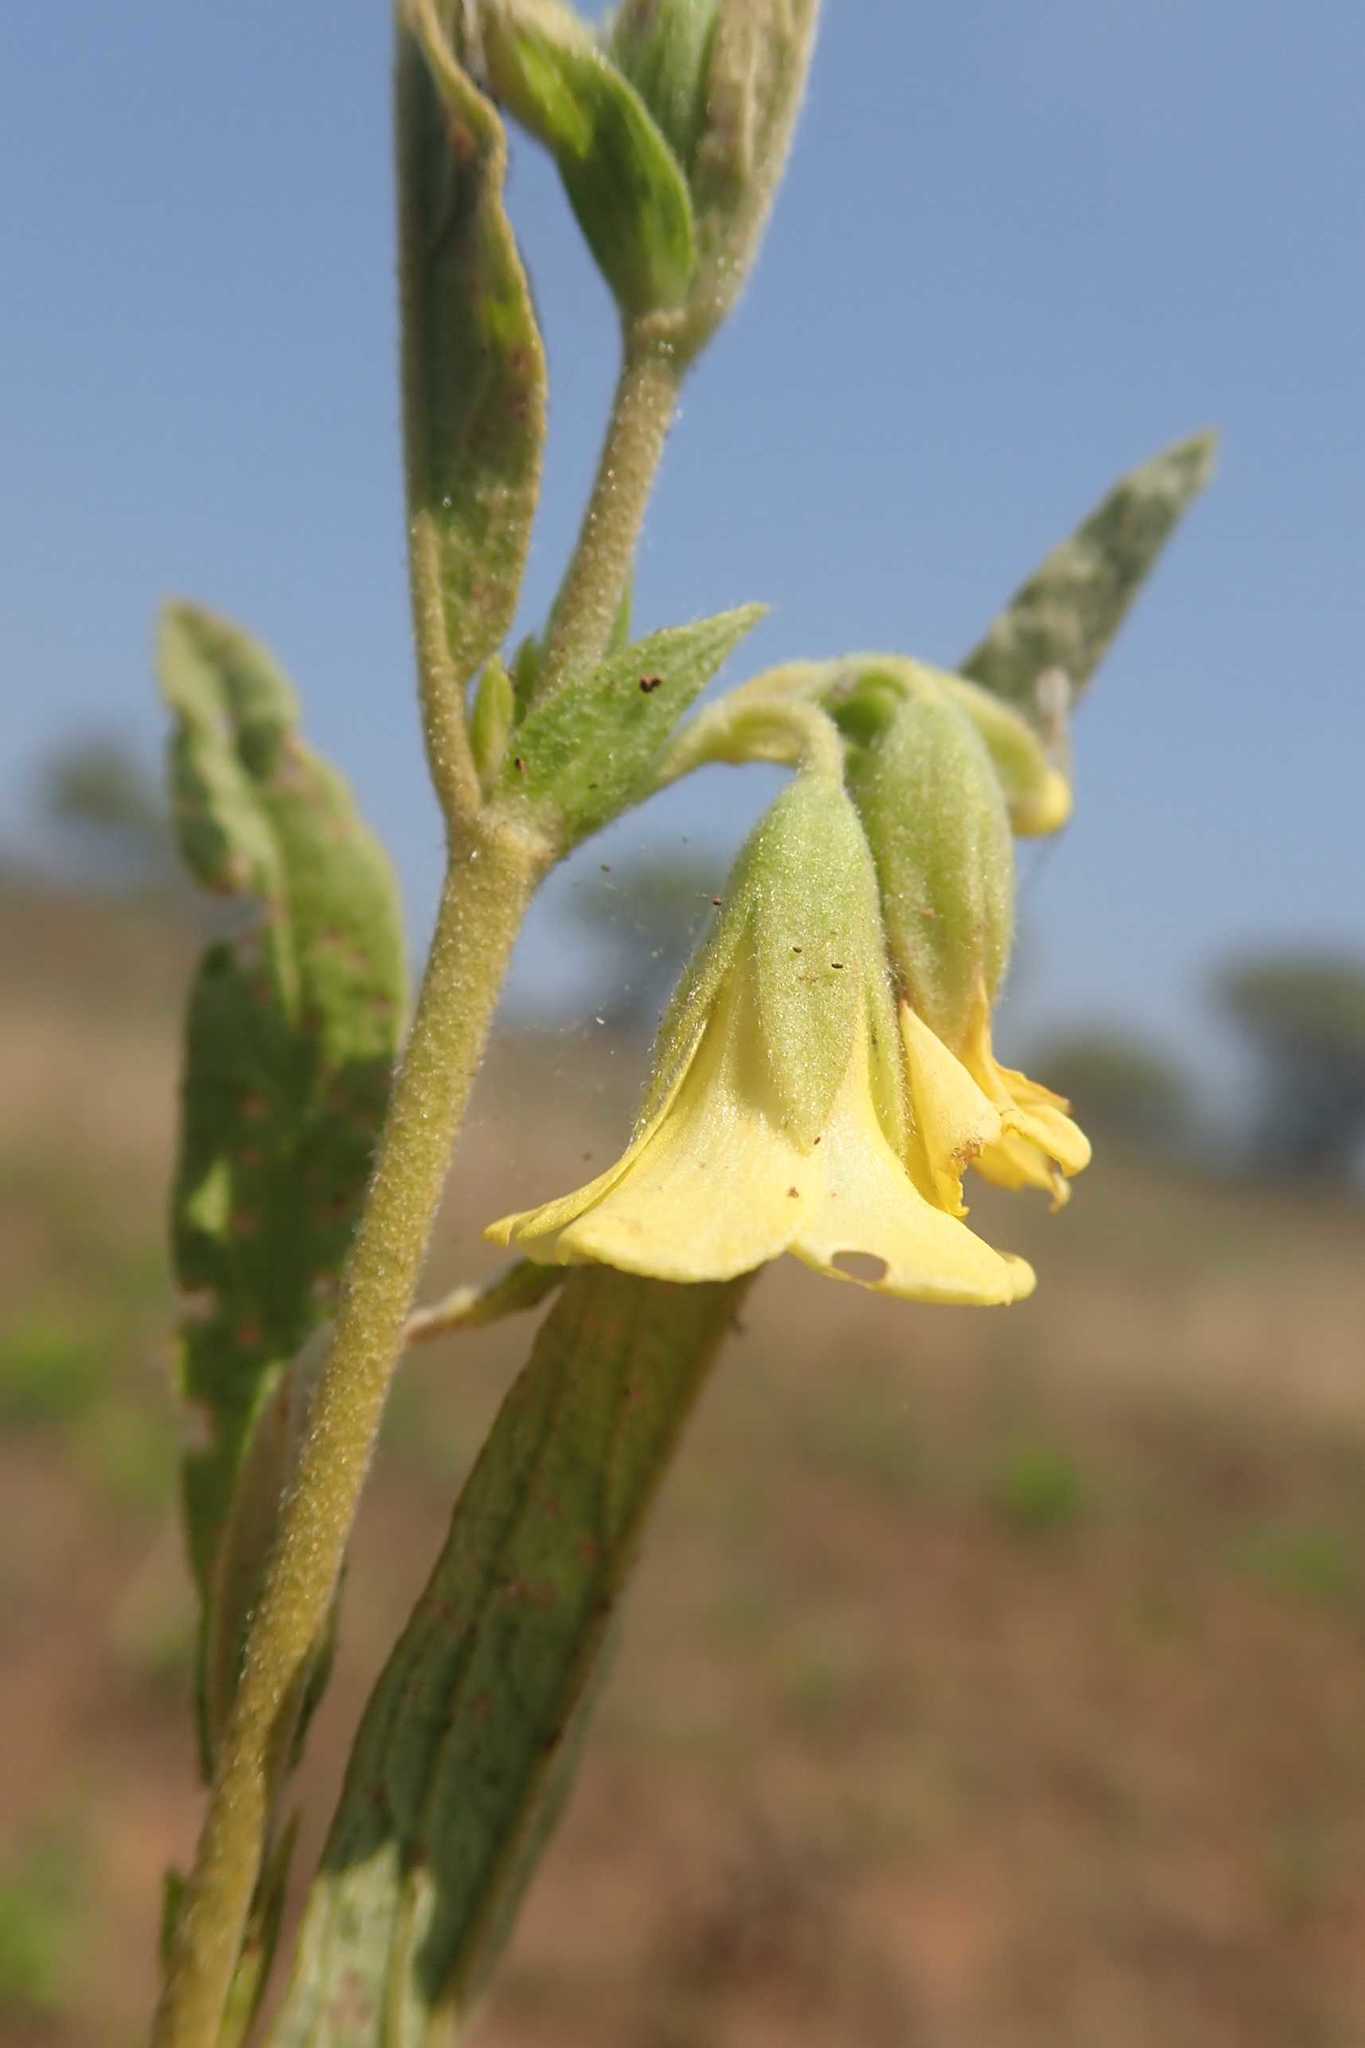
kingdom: Plantae
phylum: Tracheophyta
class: Magnoliopsida
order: Malvales
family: Malvaceae
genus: Hermannia
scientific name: Hermannia lancifolia
